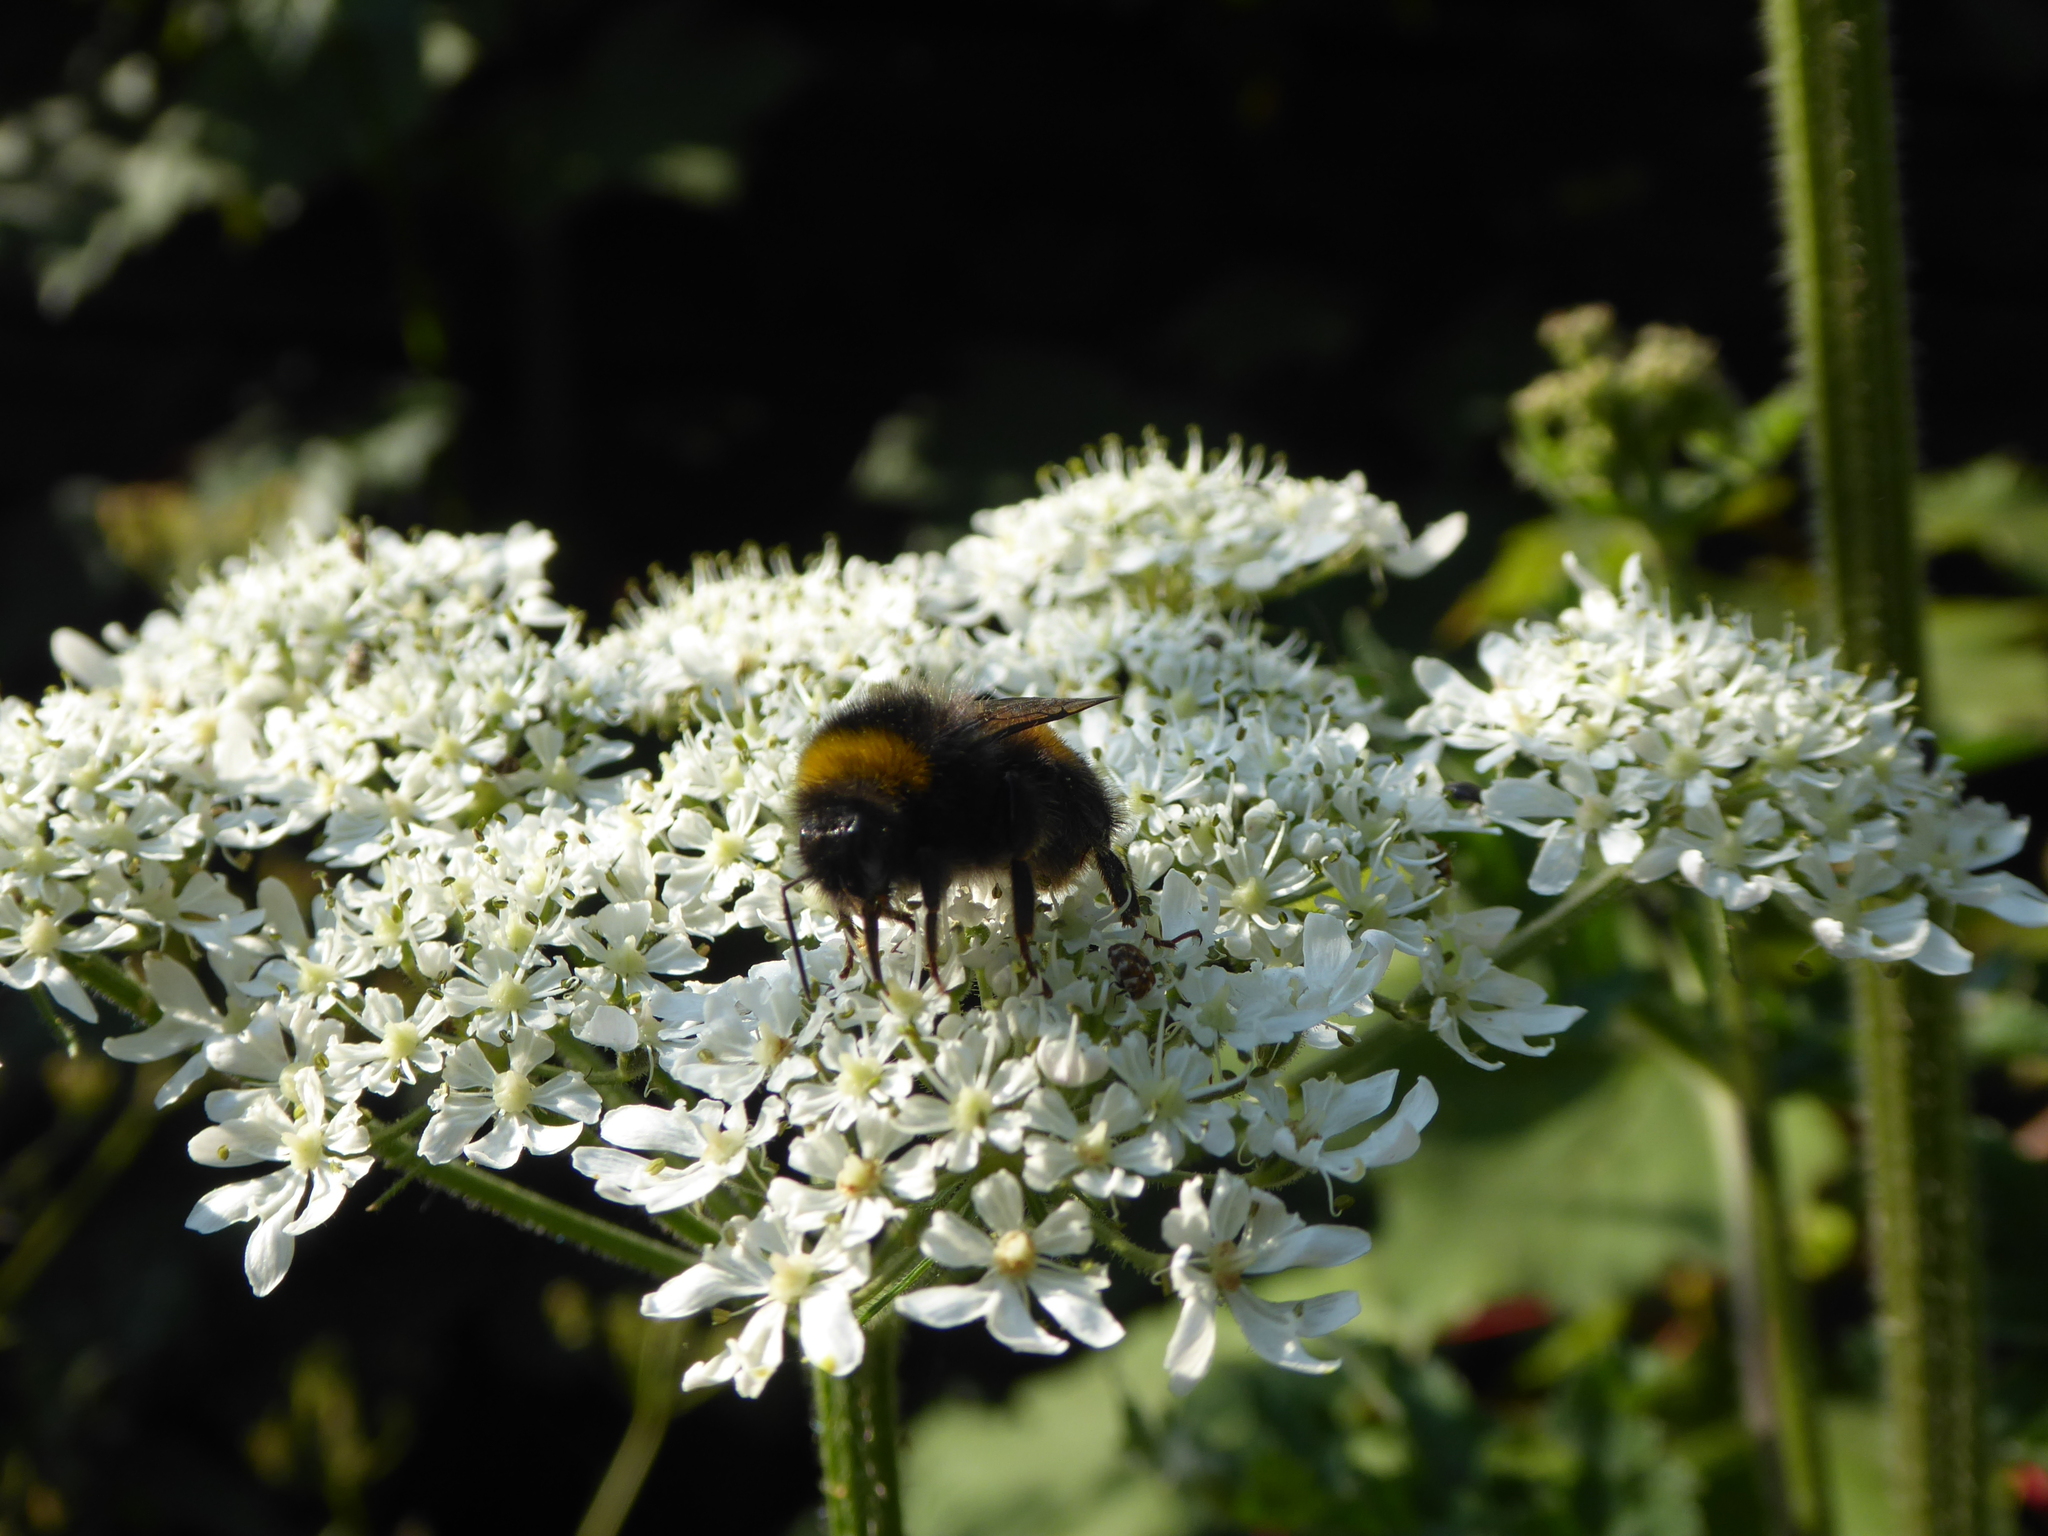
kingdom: Plantae
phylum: Tracheophyta
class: Magnoliopsida
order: Apiales
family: Apiaceae
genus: Heracleum
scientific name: Heracleum sphondylium
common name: Hogweed
